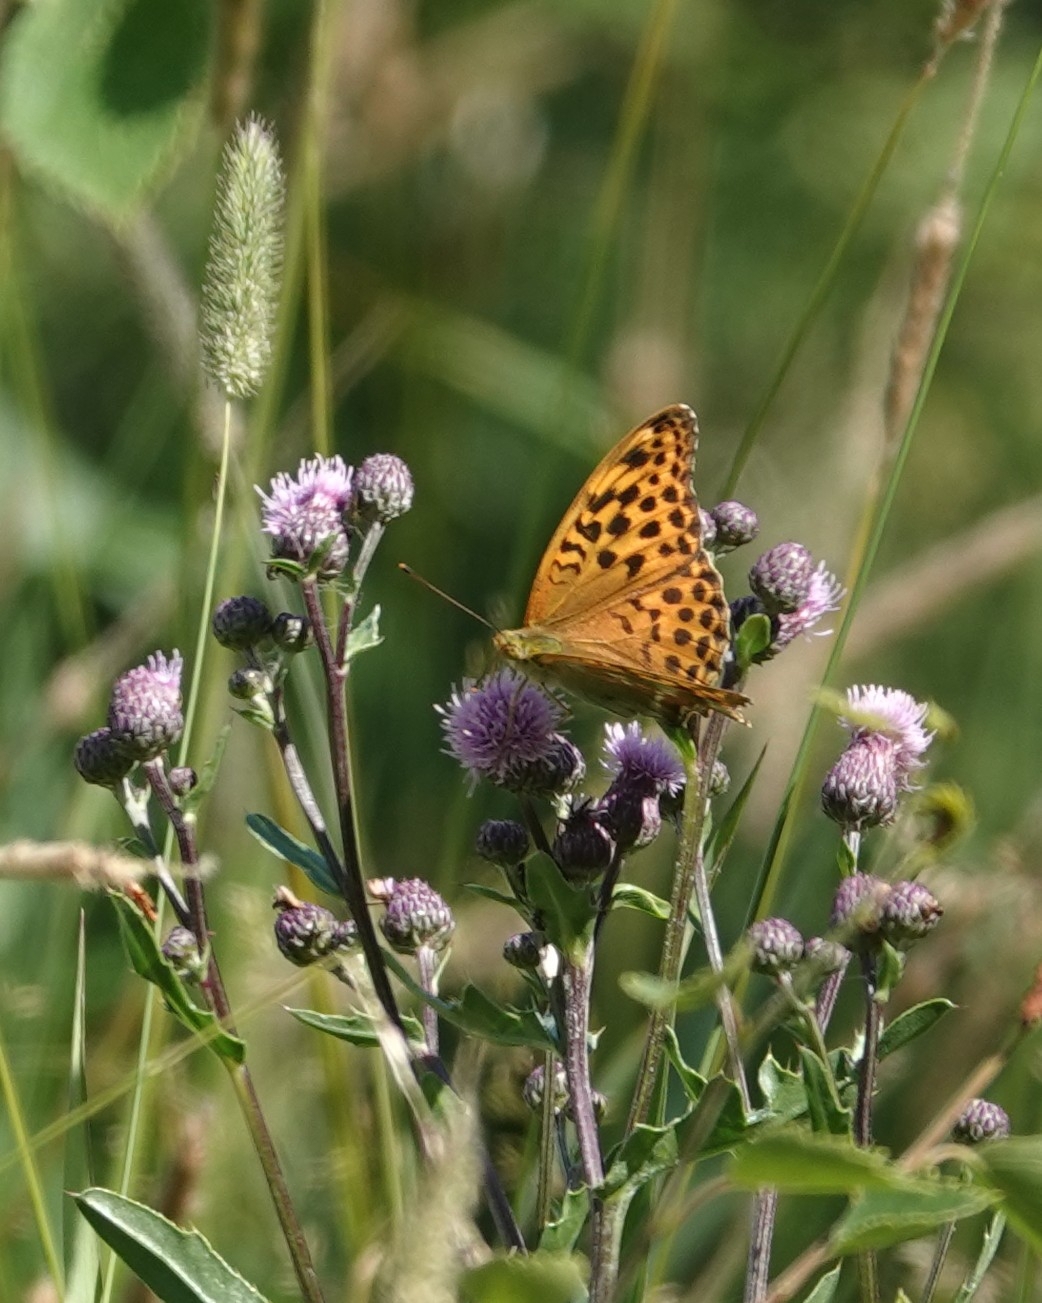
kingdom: Animalia
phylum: Arthropoda
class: Insecta
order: Lepidoptera
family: Nymphalidae
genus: Argynnis
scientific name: Argynnis paphia
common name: Silver-washed fritillary
